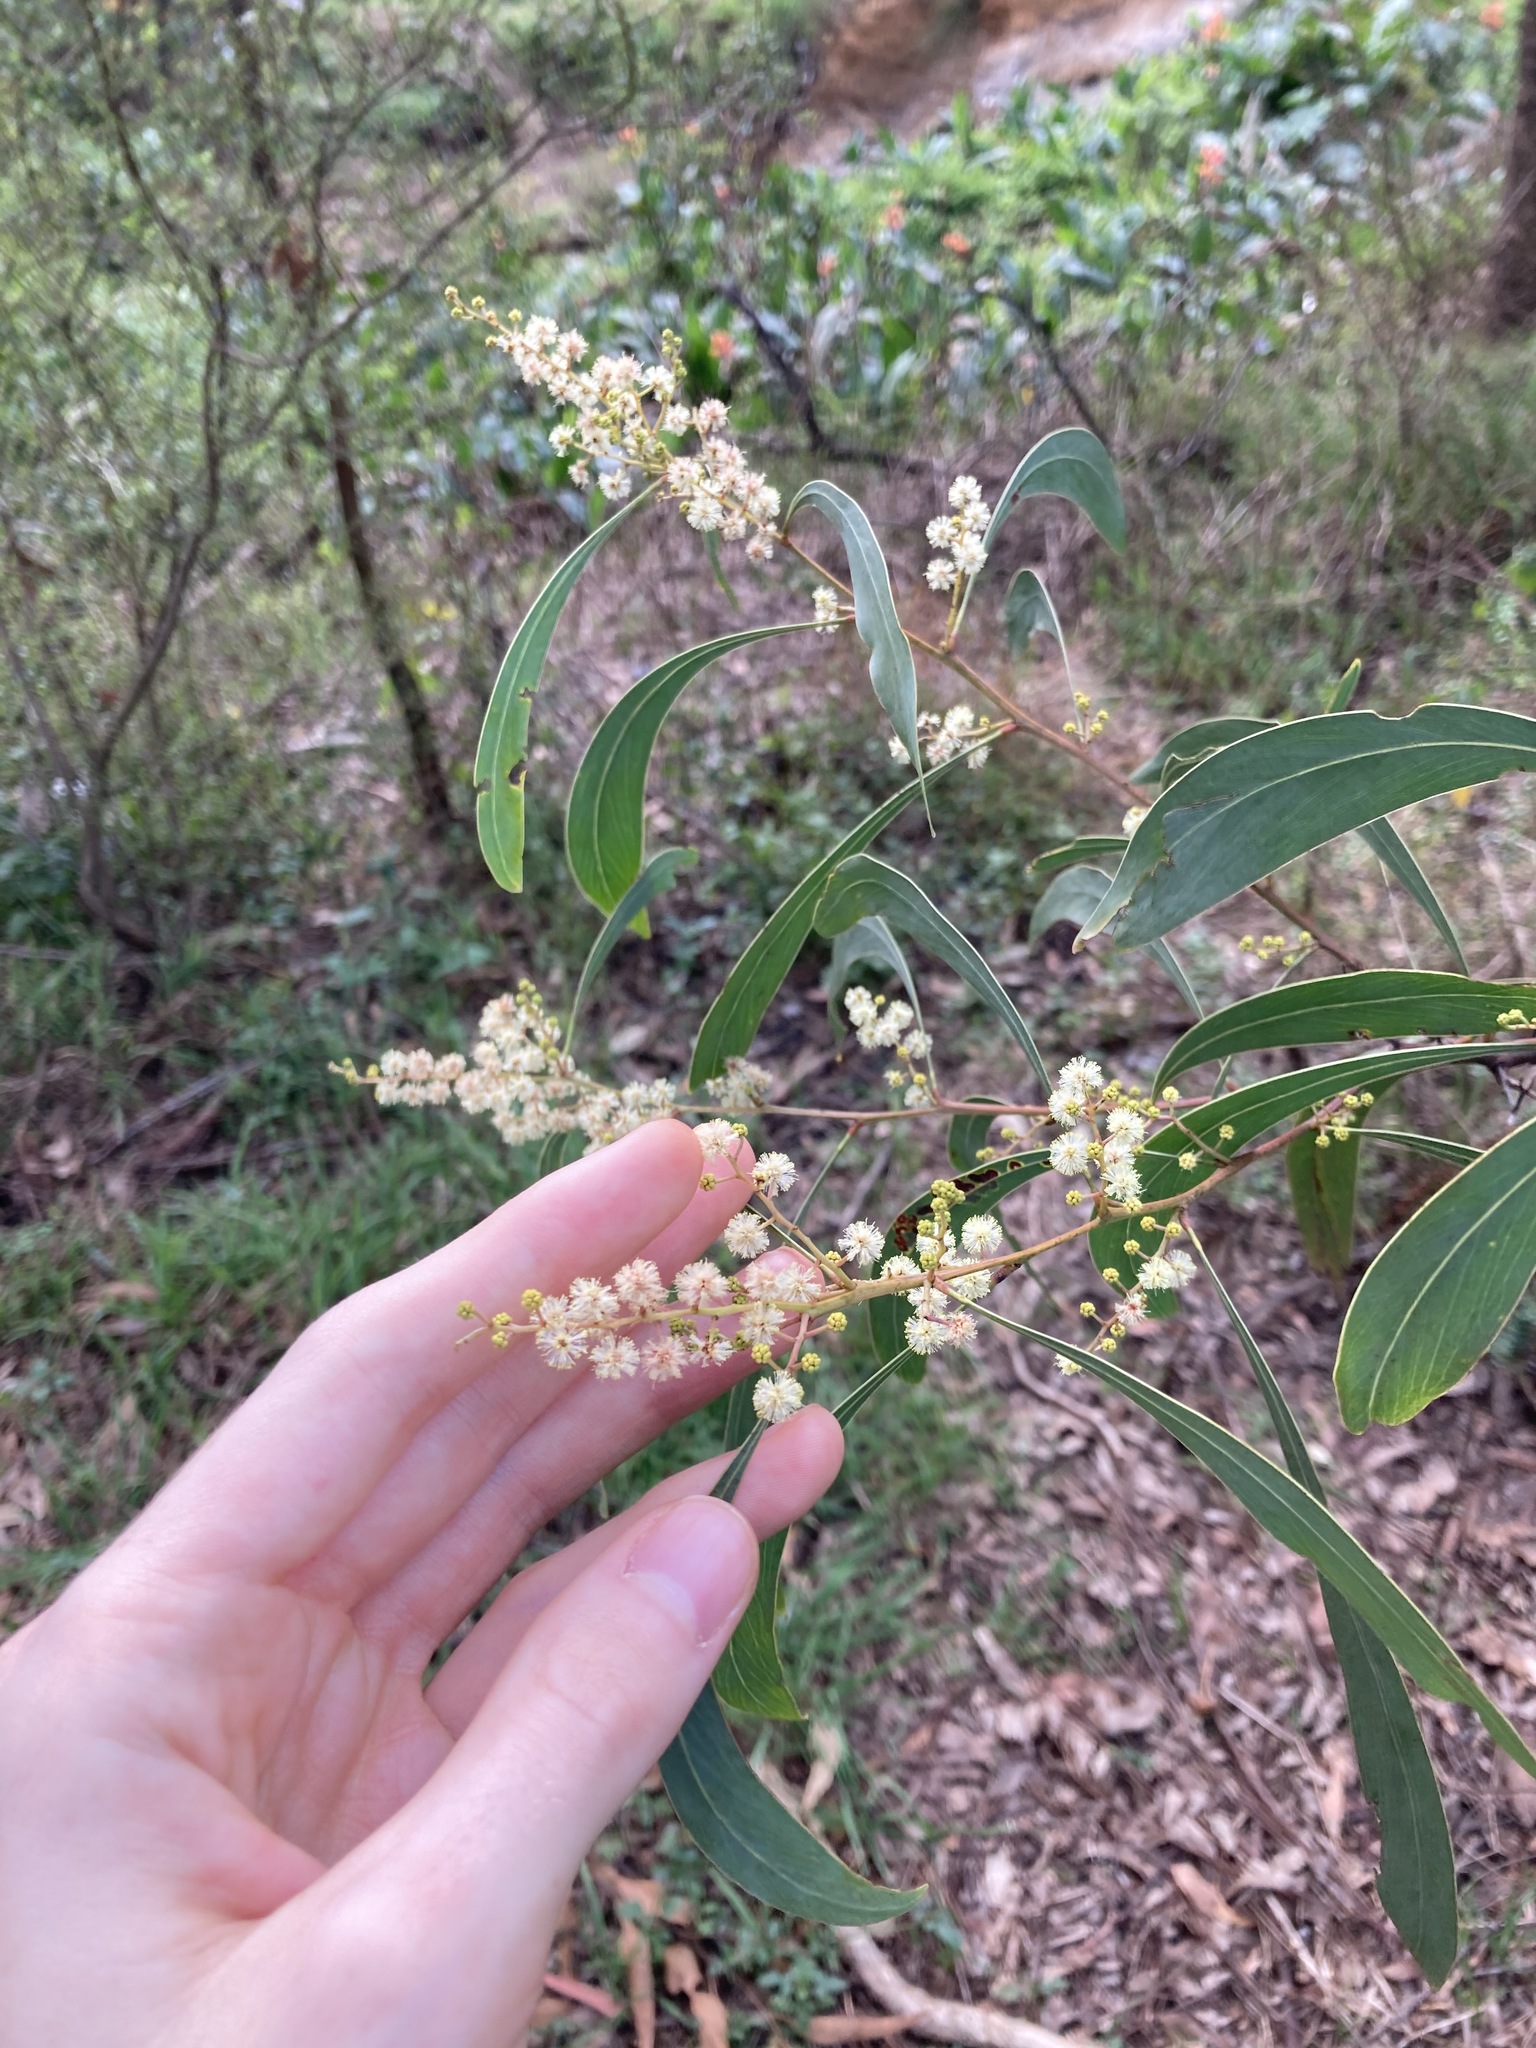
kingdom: Plantae
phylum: Tracheophyta
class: Magnoliopsida
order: Fabales
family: Fabaceae
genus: Acacia
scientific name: Acacia falcata
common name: Burra acacia
